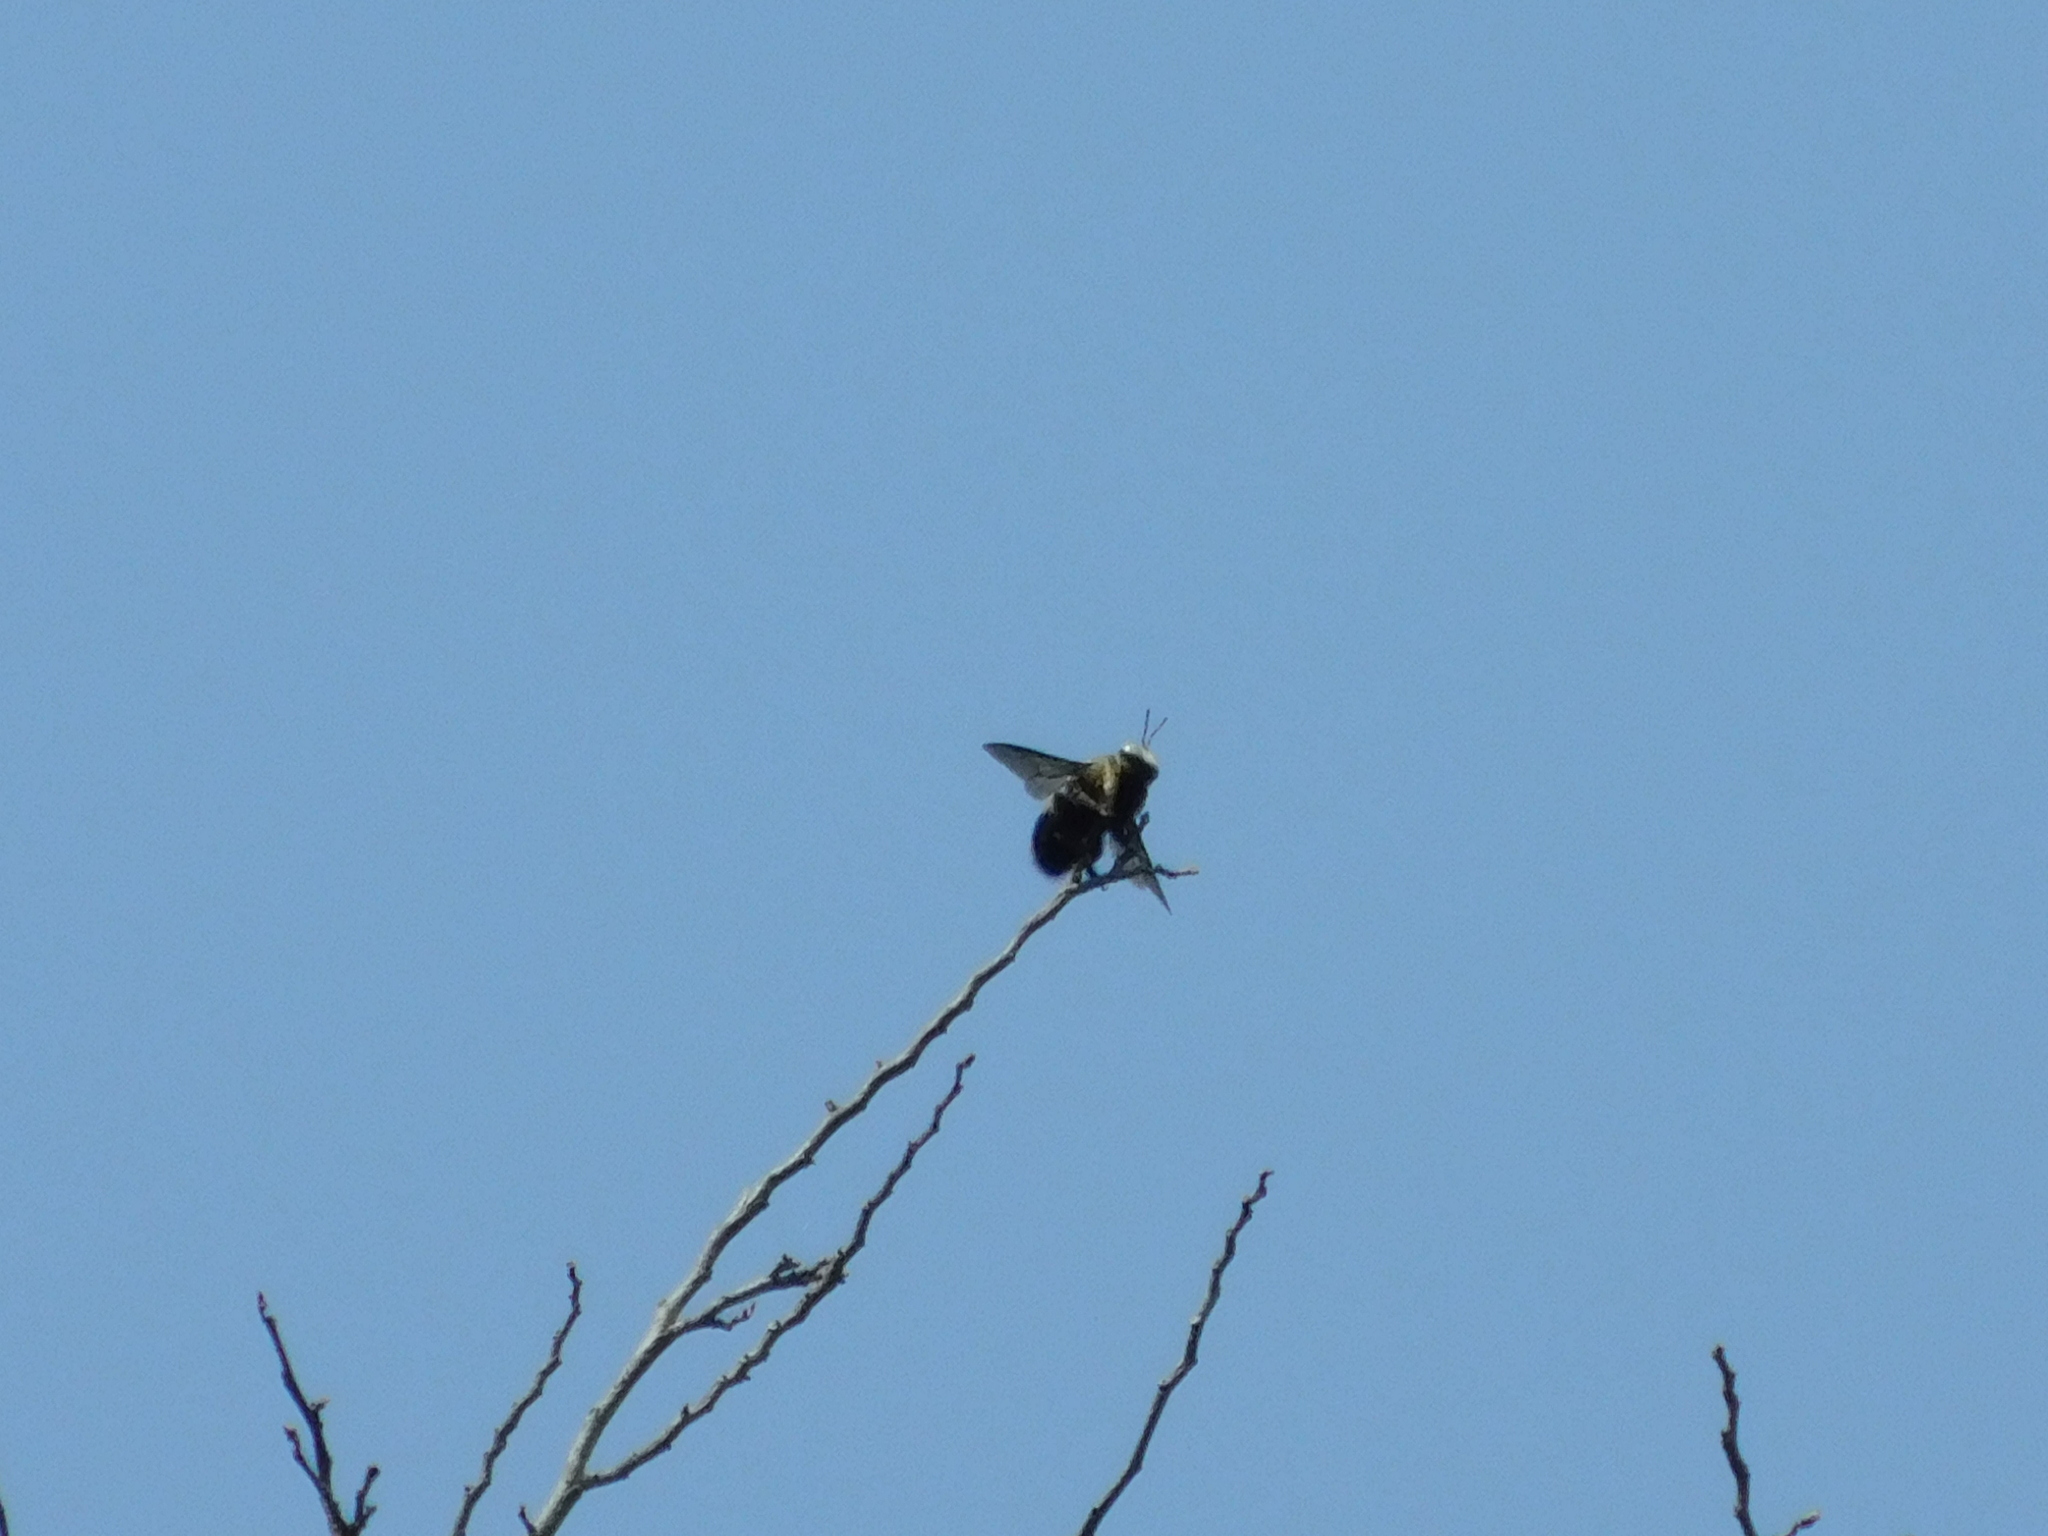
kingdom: Animalia
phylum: Arthropoda
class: Insecta
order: Hymenoptera
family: Apidae
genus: Xylocopa
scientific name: Xylocopa dejeanii
